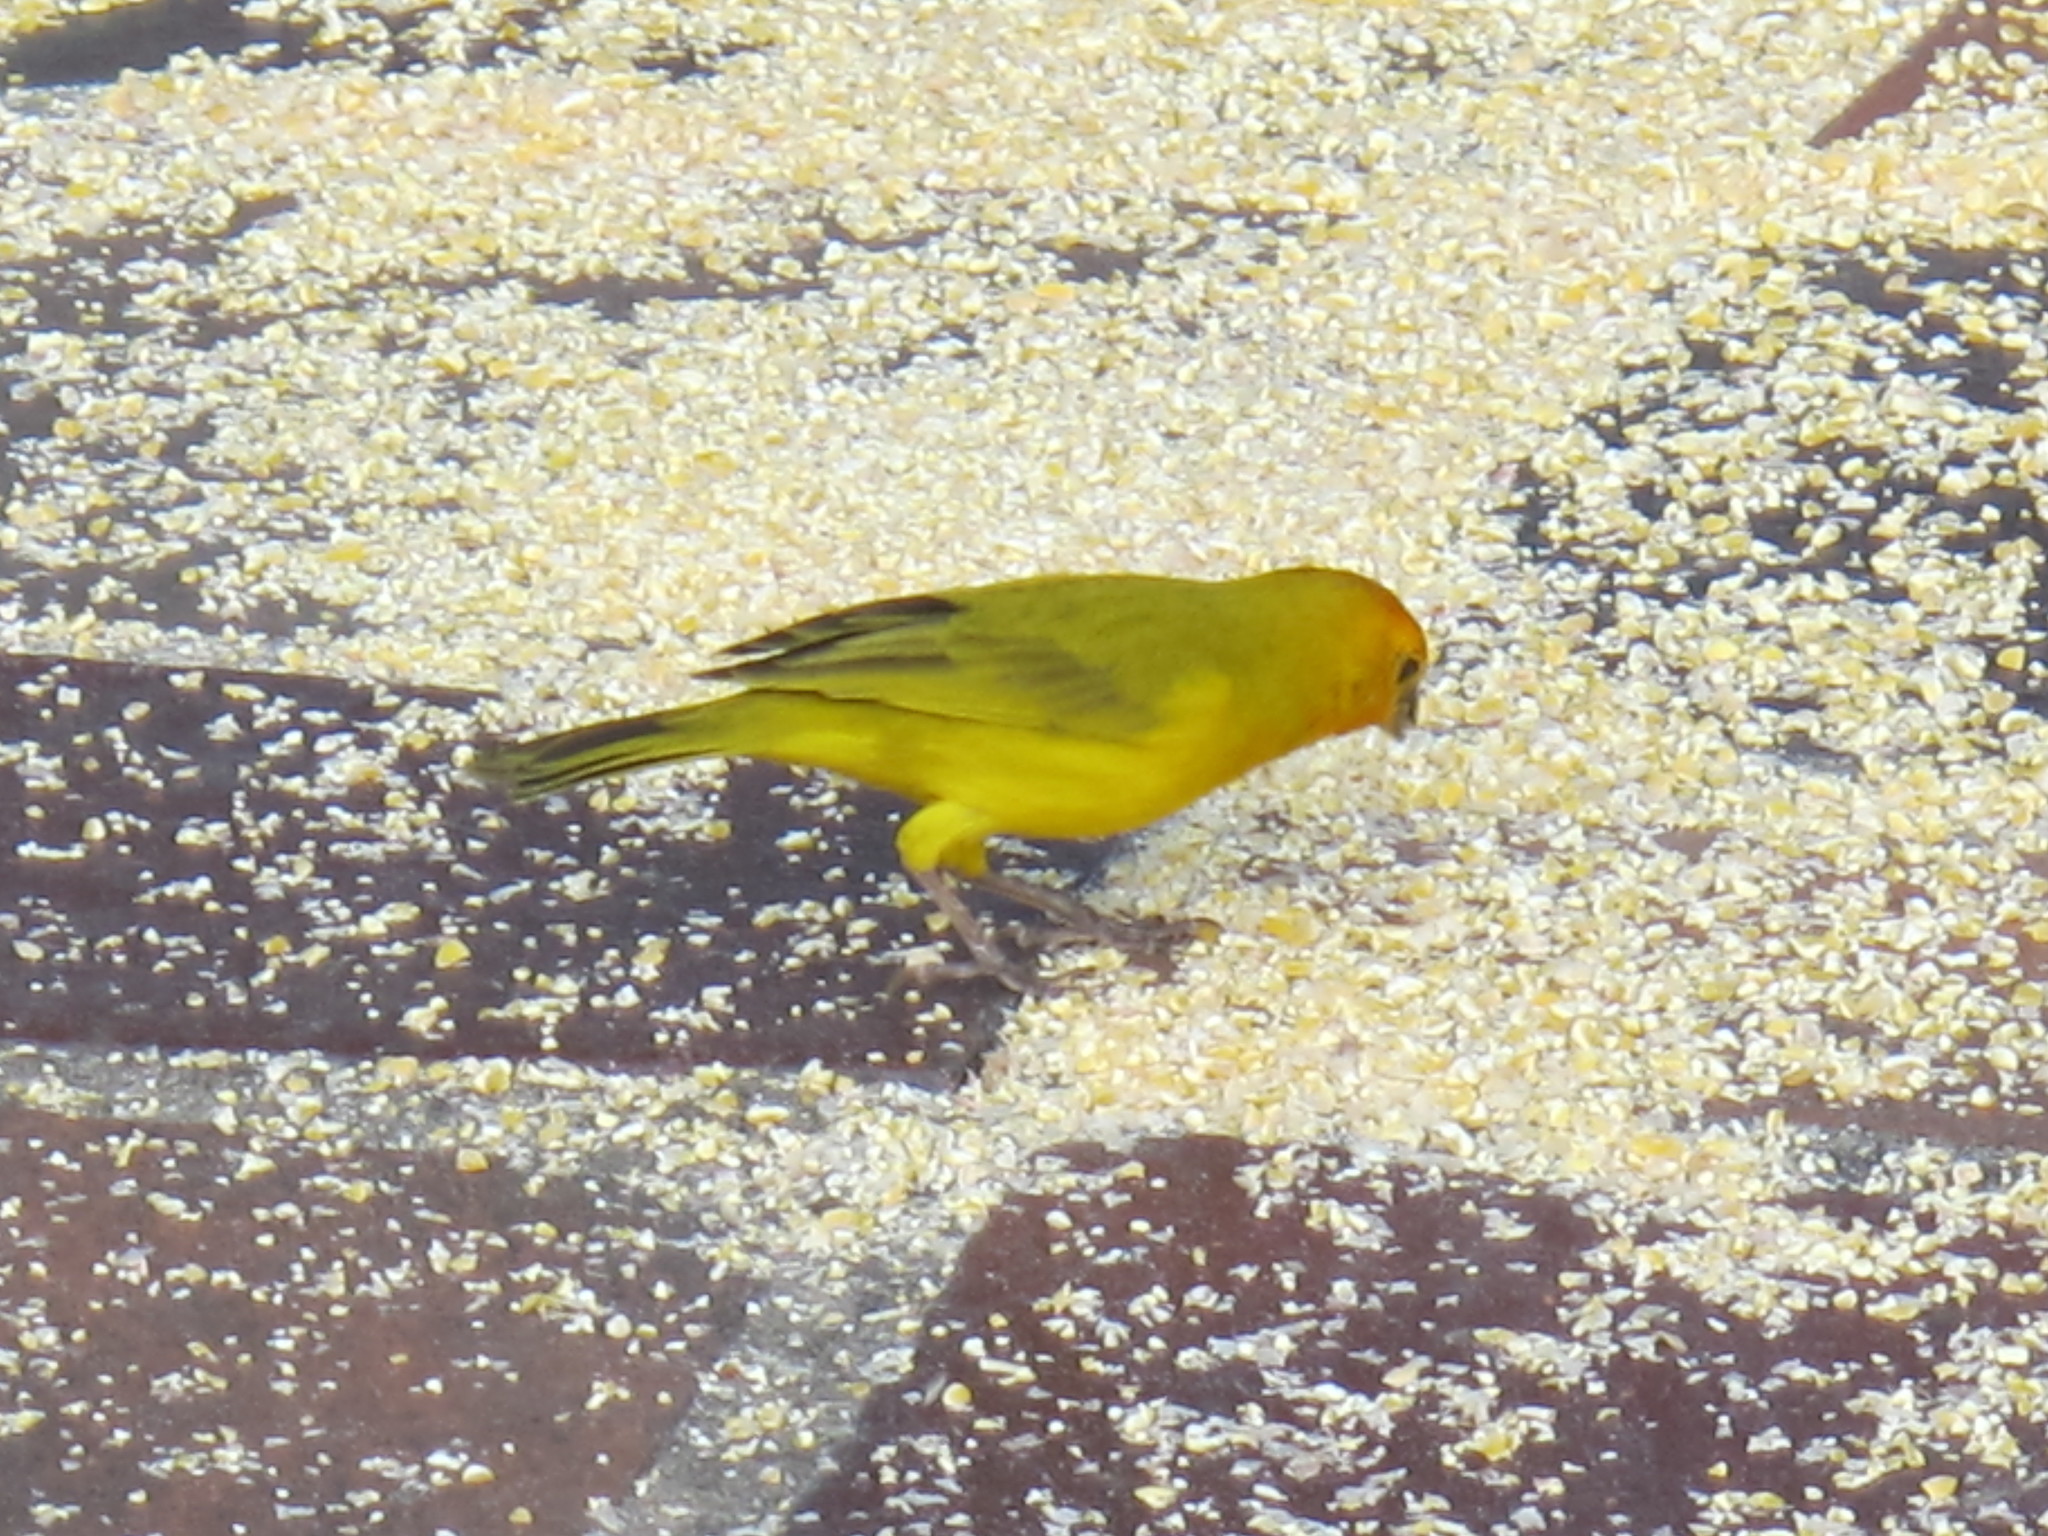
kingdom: Animalia
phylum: Chordata
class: Aves
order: Passeriformes
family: Thraupidae
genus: Sicalis
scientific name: Sicalis flaveola
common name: Saffron finch
